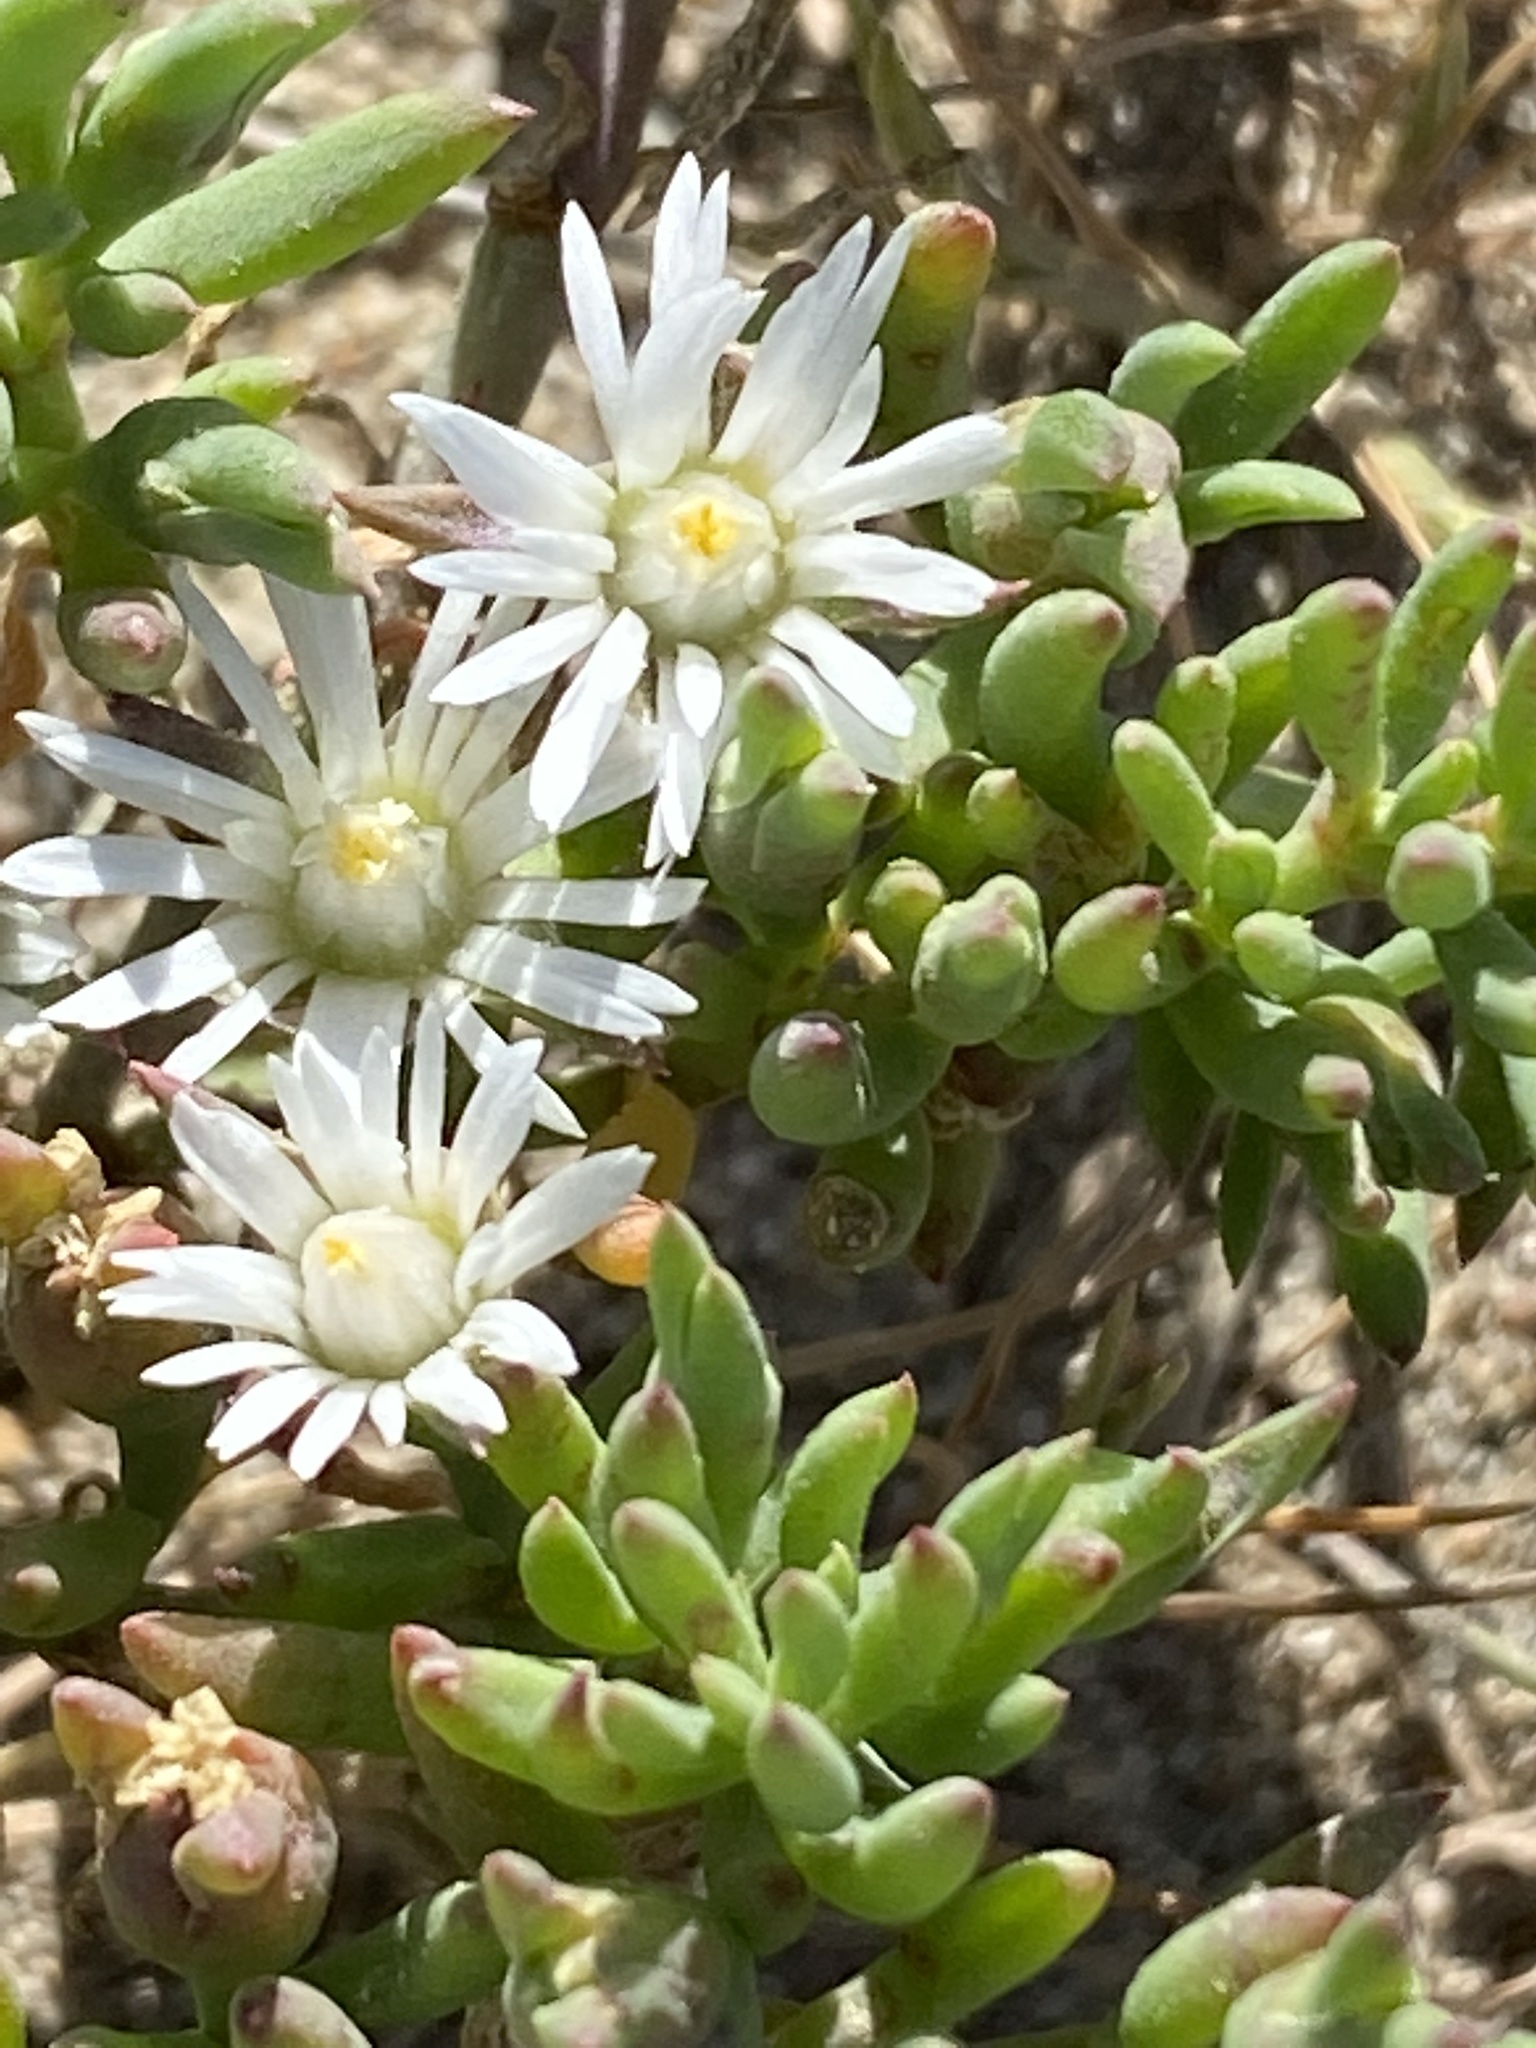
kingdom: Plantae
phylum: Tracheophyta
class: Magnoliopsida
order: Caryophyllales
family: Aizoaceae
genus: Mesembryanthemum
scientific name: Mesembryanthemum parviflorum
